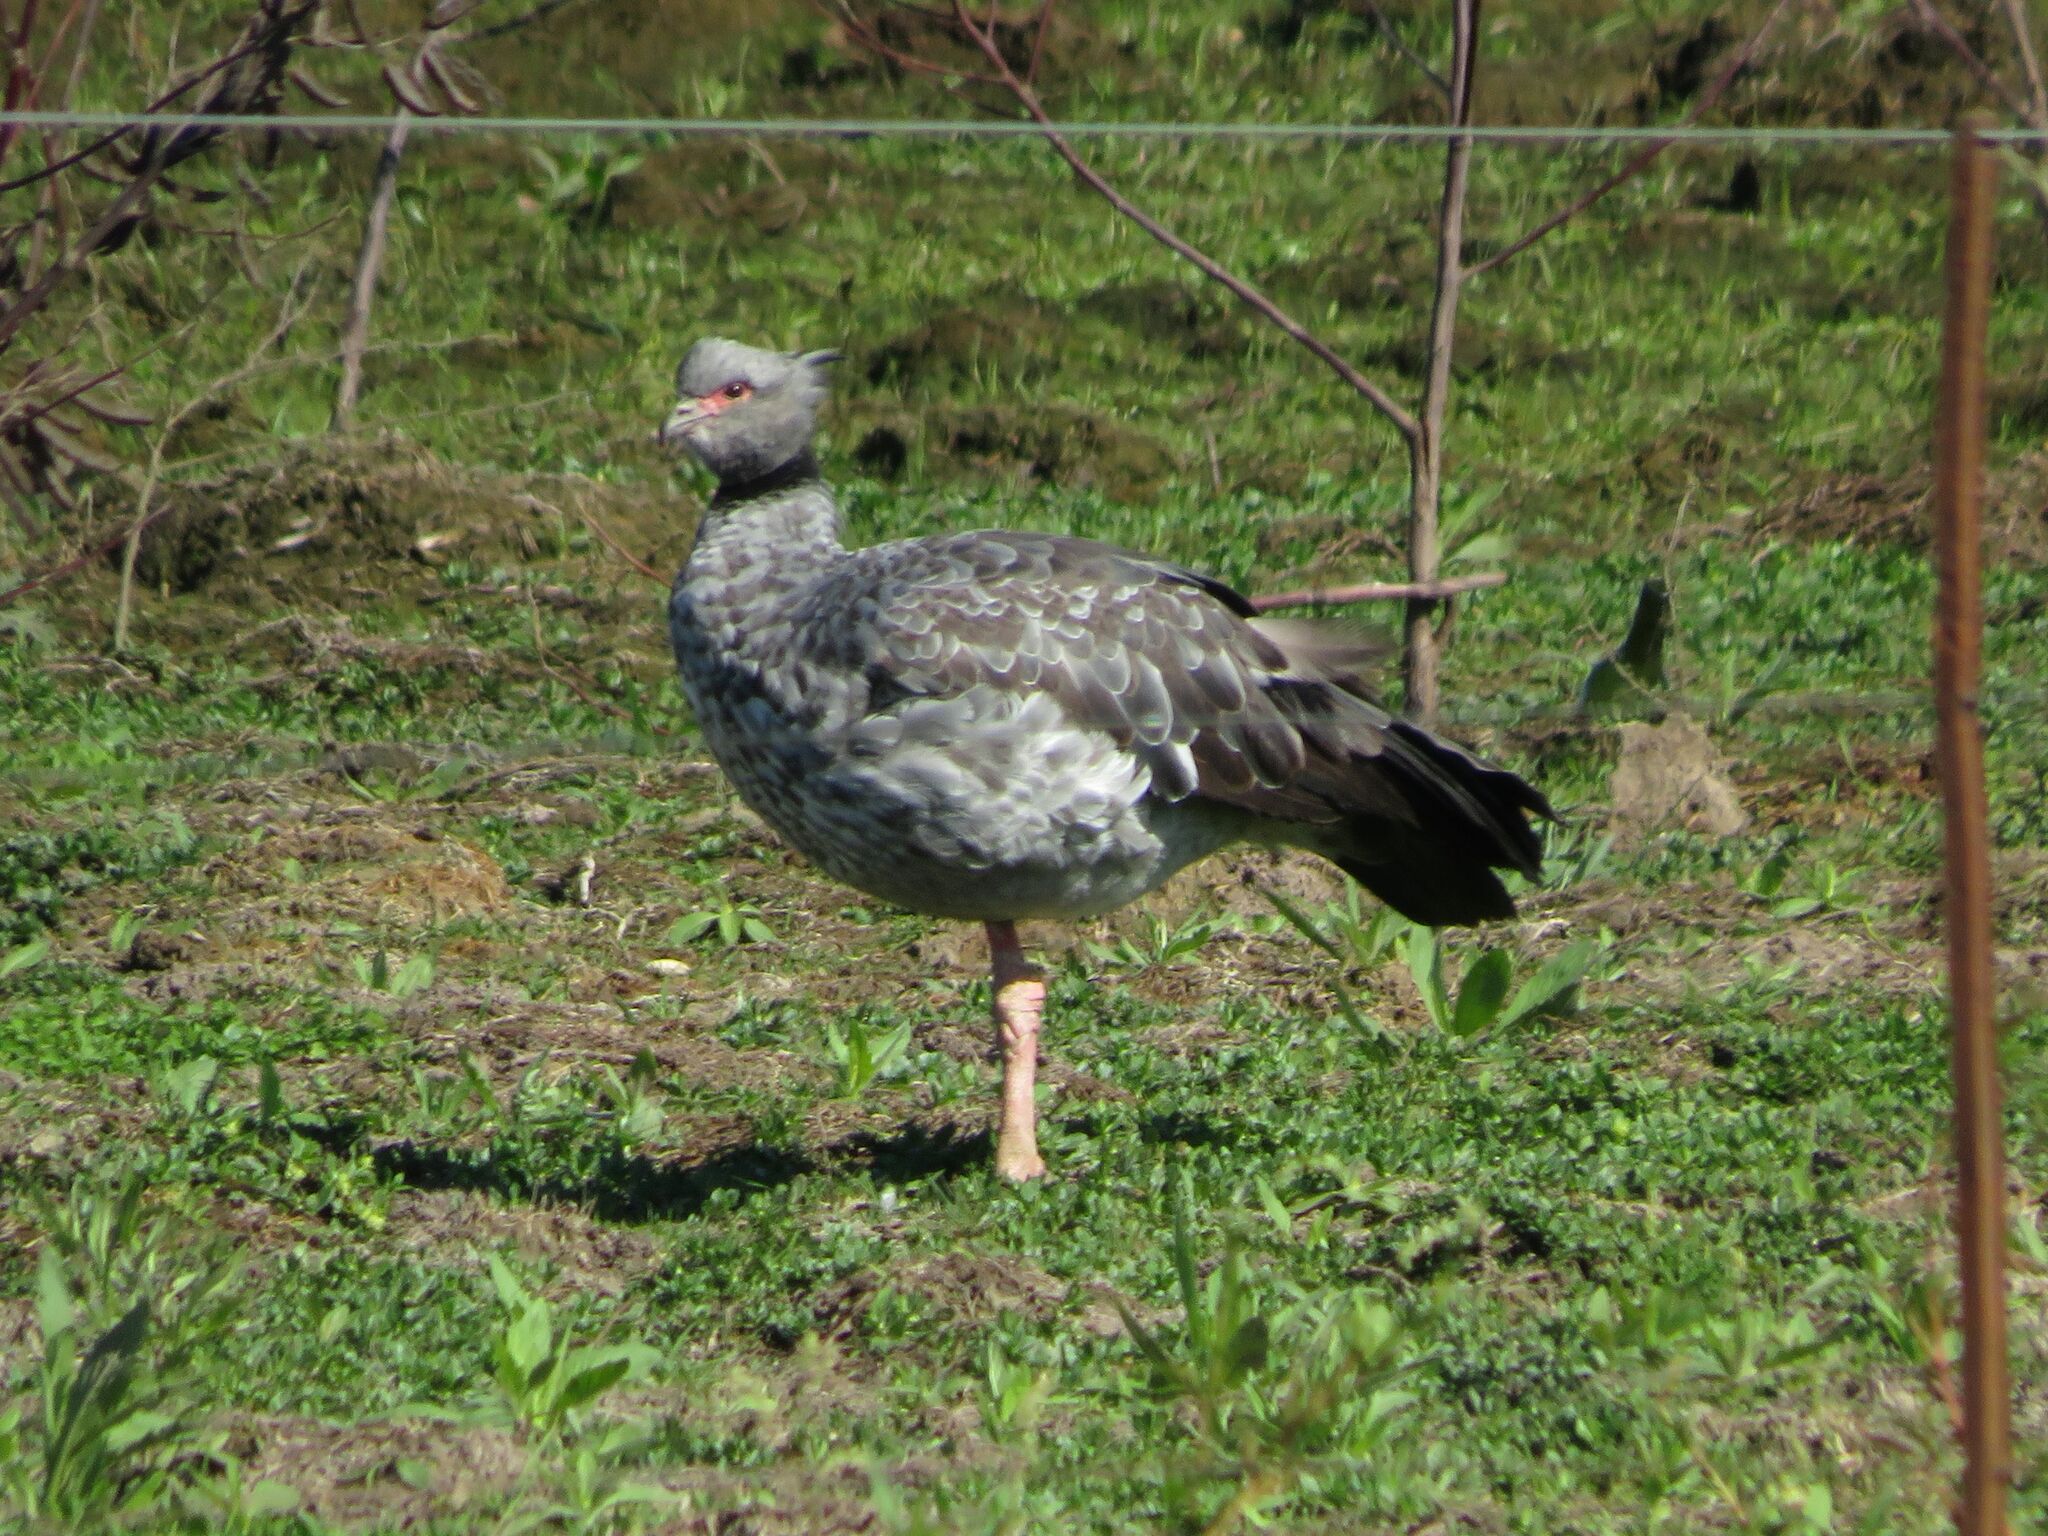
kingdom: Animalia
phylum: Chordata
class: Aves
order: Anseriformes
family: Anhimidae
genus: Chauna
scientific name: Chauna torquata
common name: Southern screamer
